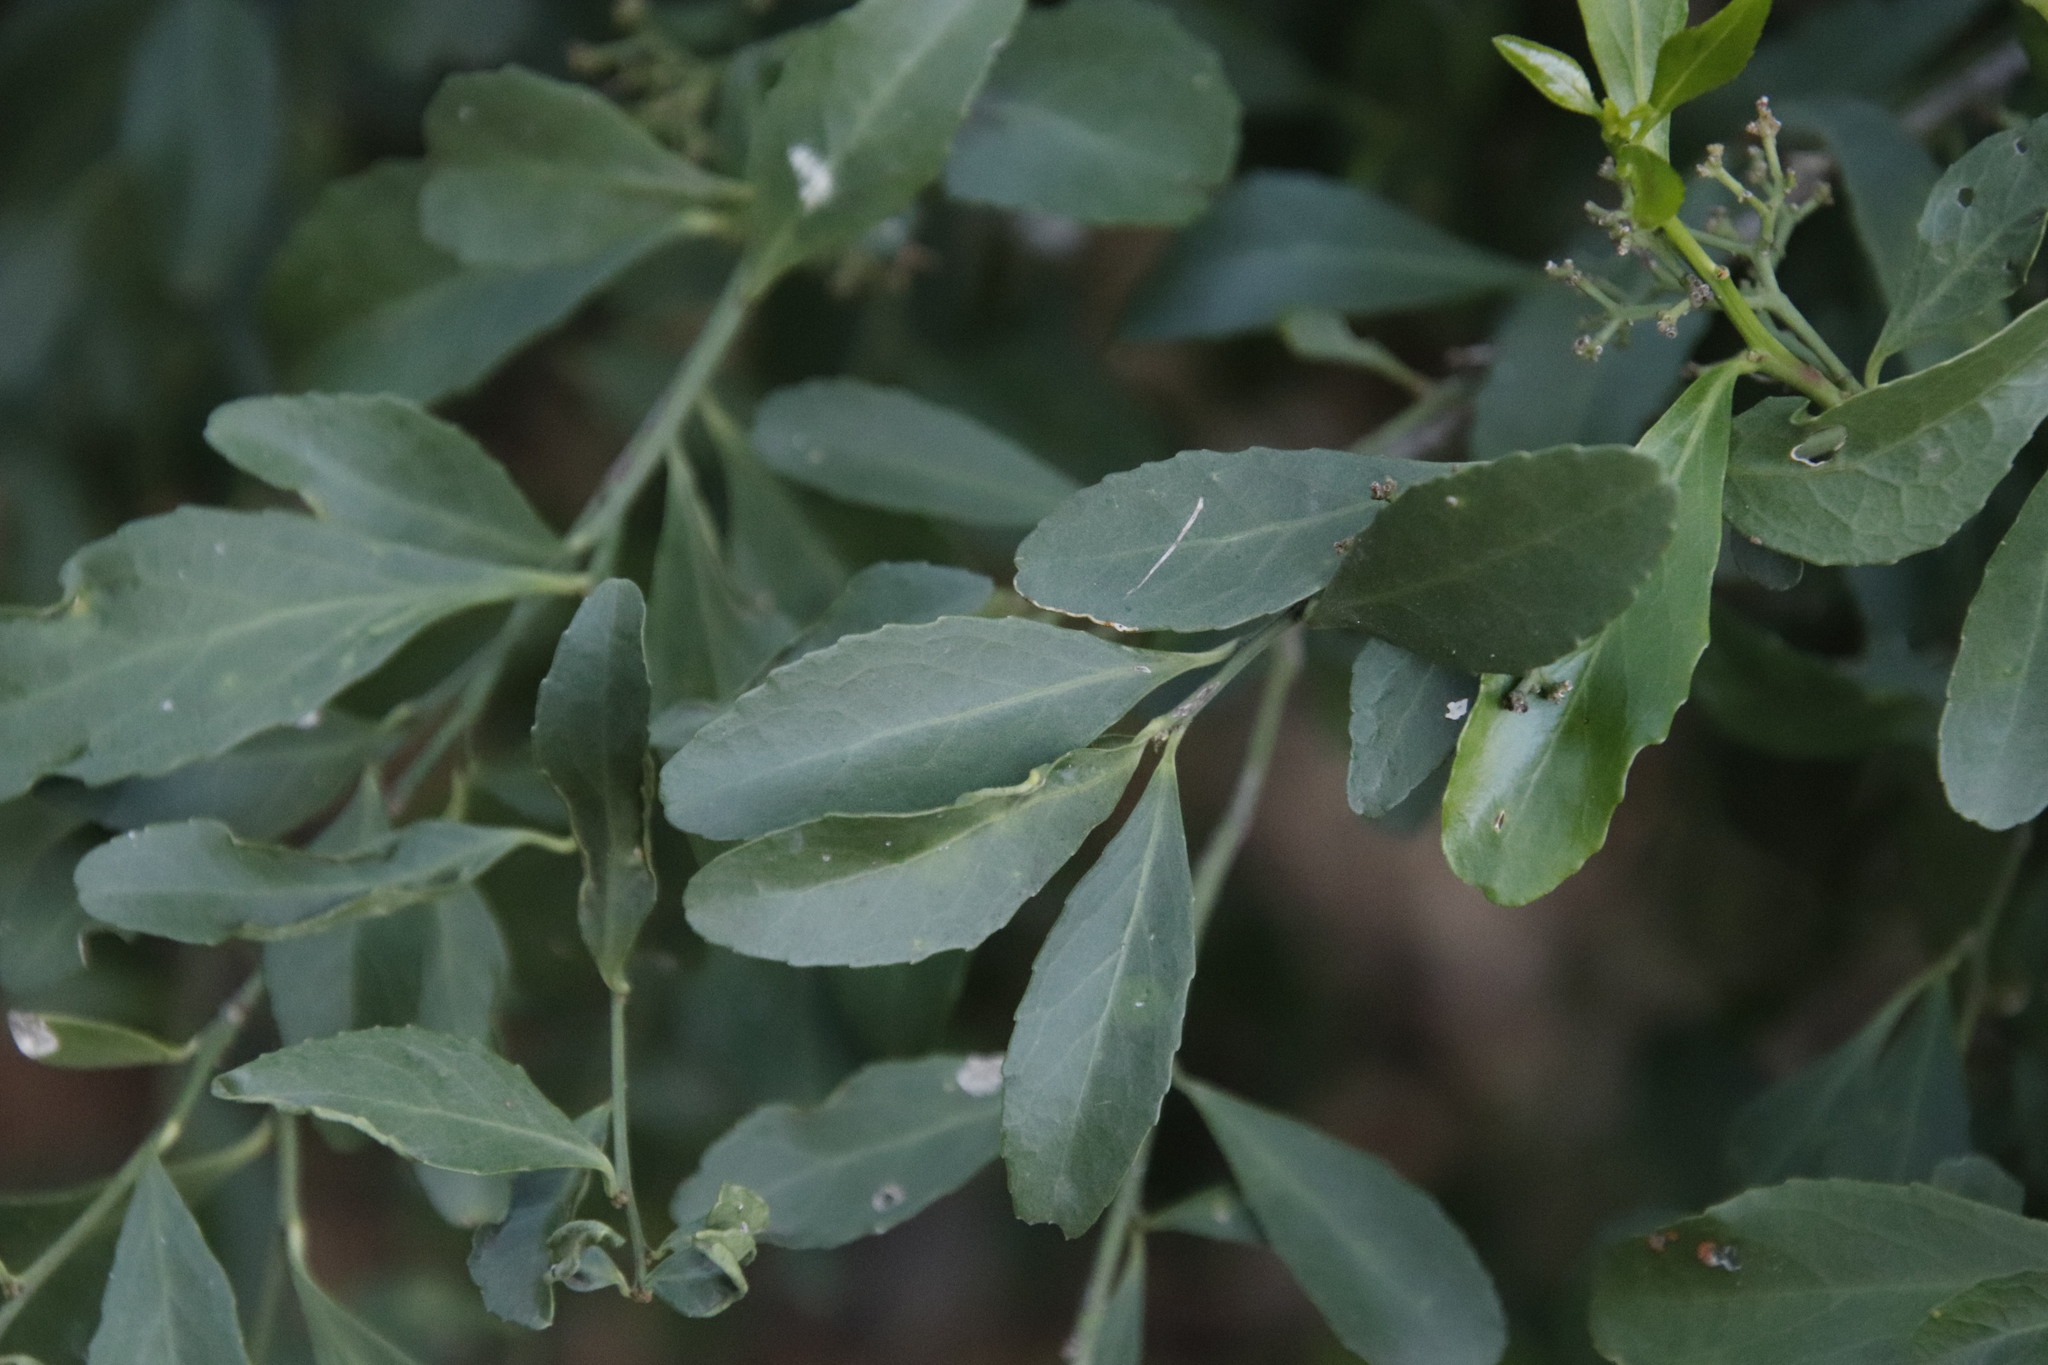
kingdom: Plantae
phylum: Tracheophyta
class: Magnoliopsida
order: Celastrales
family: Celastraceae
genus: Gymnosporia
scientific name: Gymnosporia buxifolia
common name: Common spike-thorn
